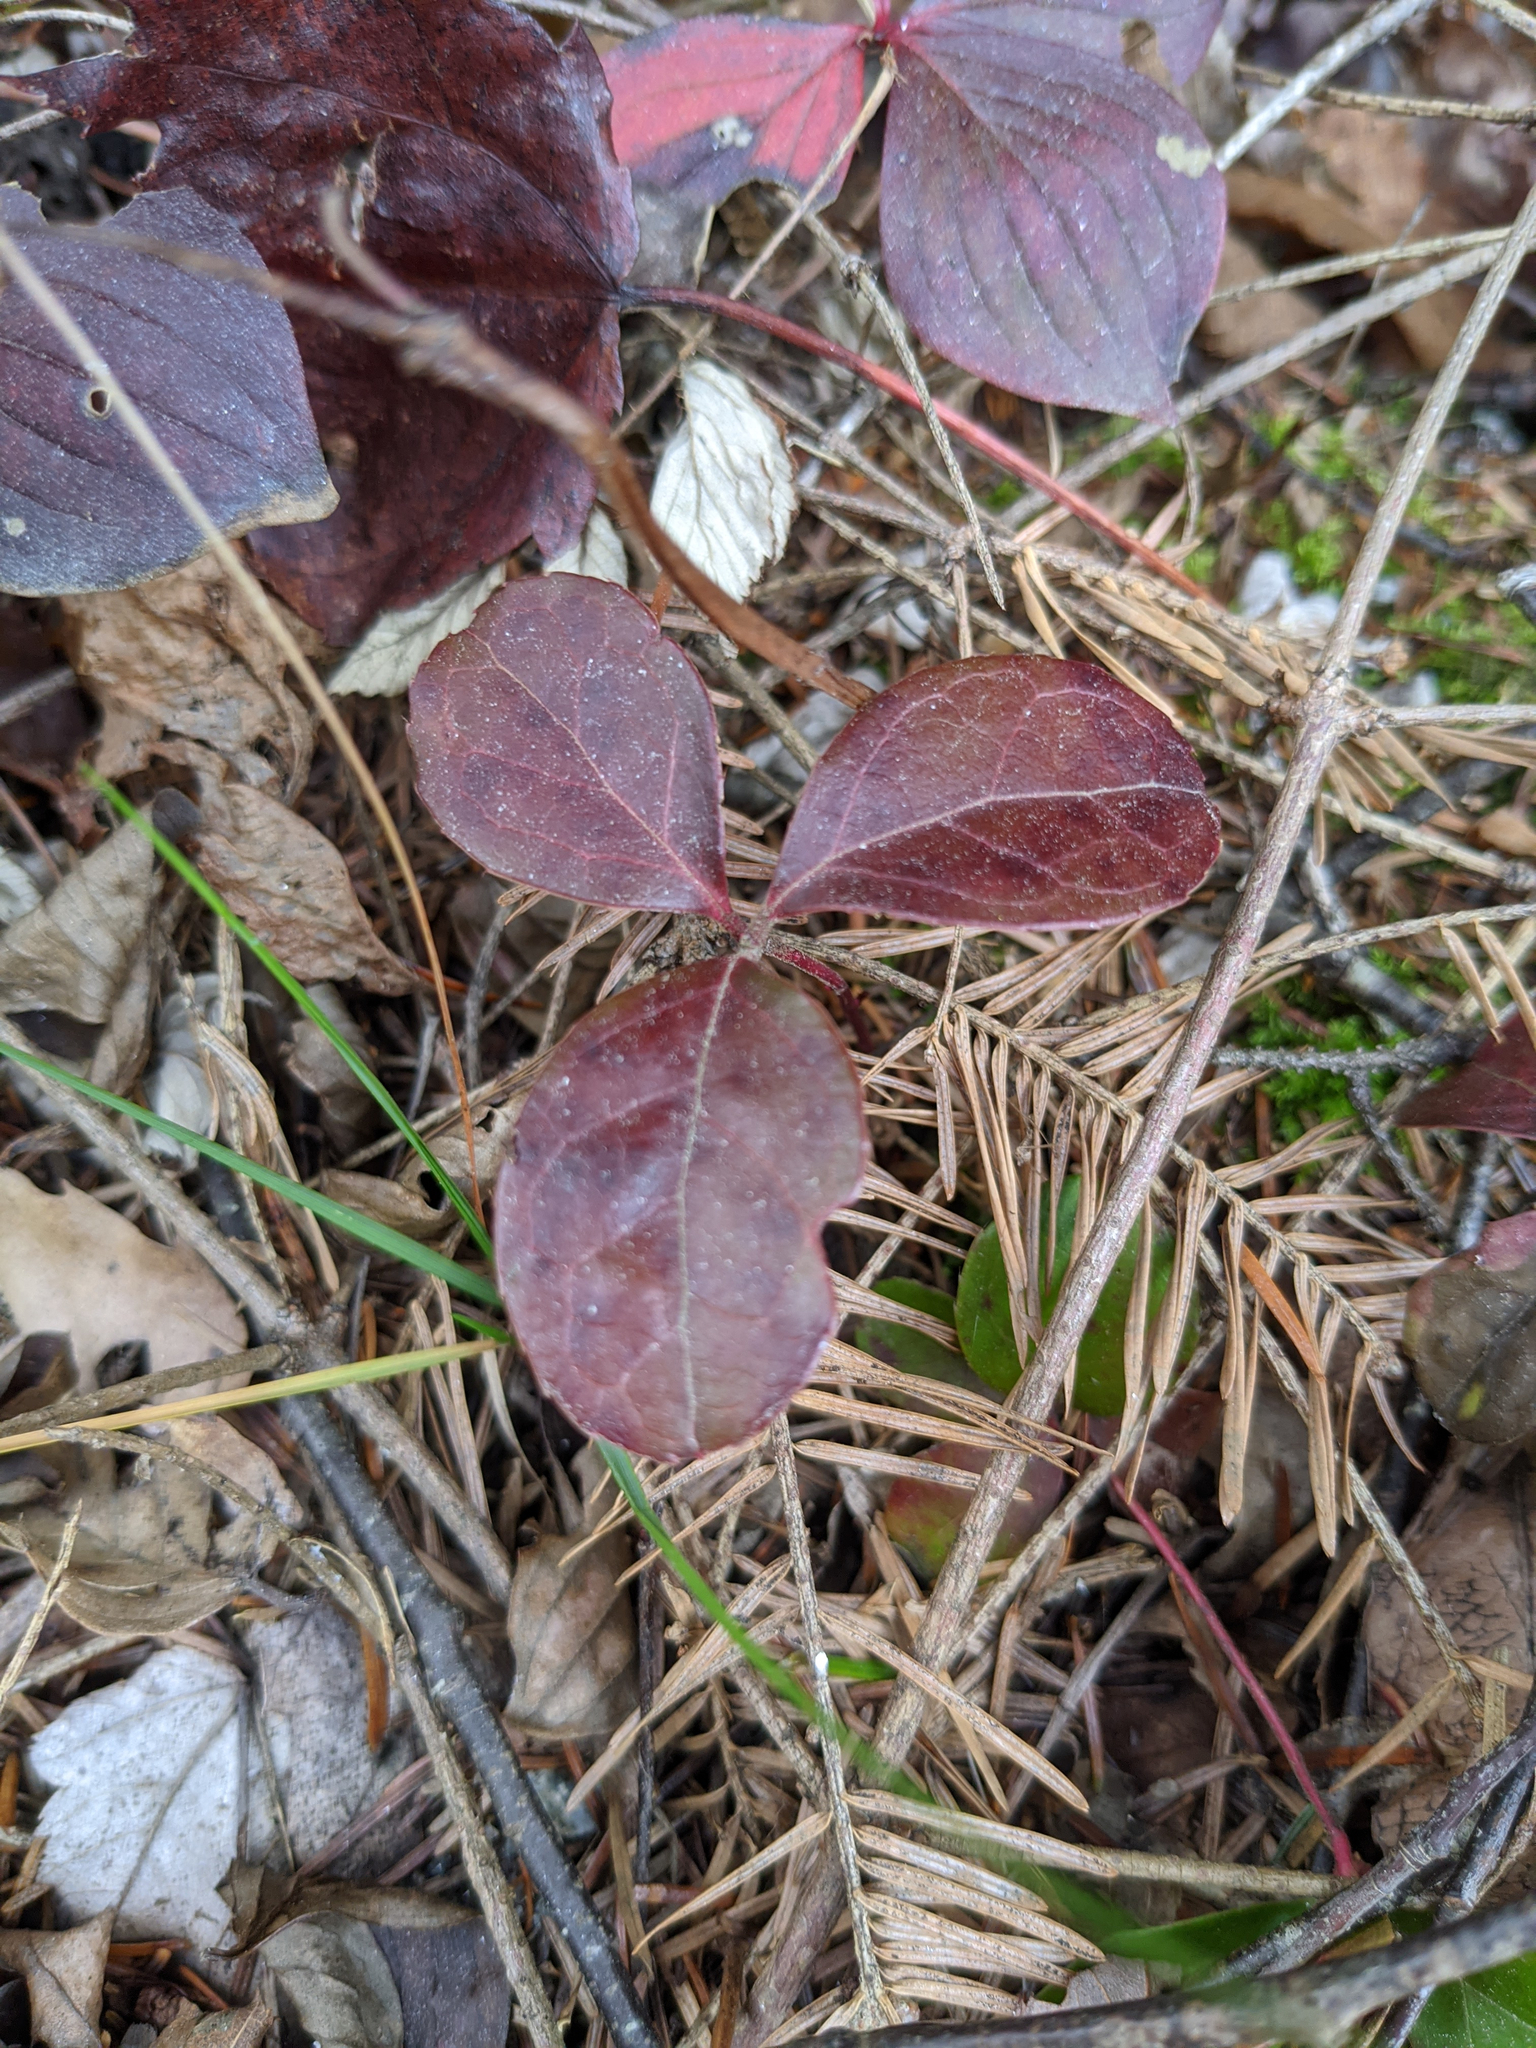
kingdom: Plantae
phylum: Tracheophyta
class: Magnoliopsida
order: Ericales
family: Ericaceae
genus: Gaultheria
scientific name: Gaultheria procumbens
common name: Checkerberry
